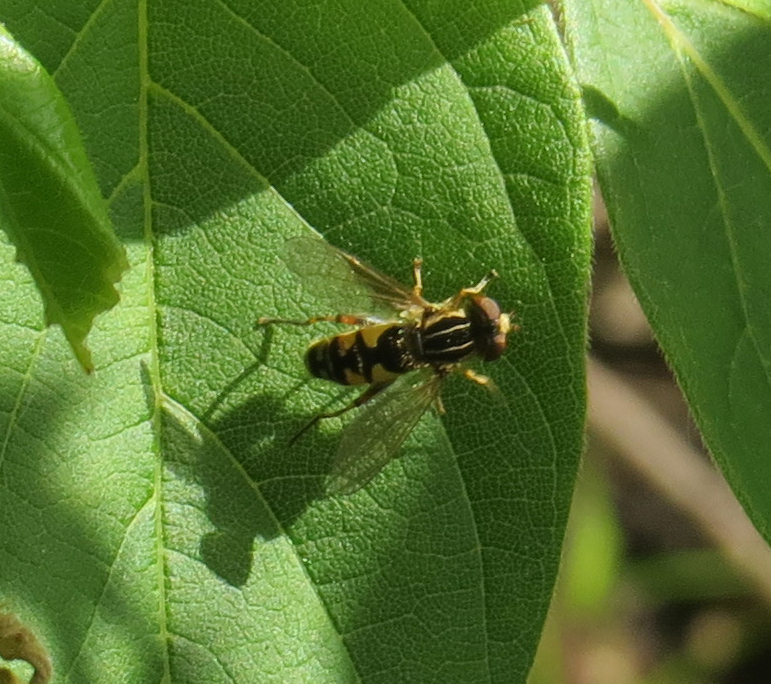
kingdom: Animalia
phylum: Arthropoda
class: Insecta
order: Diptera
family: Syrphidae
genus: Eurimyia
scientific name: Eurimyia stipatus
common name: Long-nosed swamp fly
